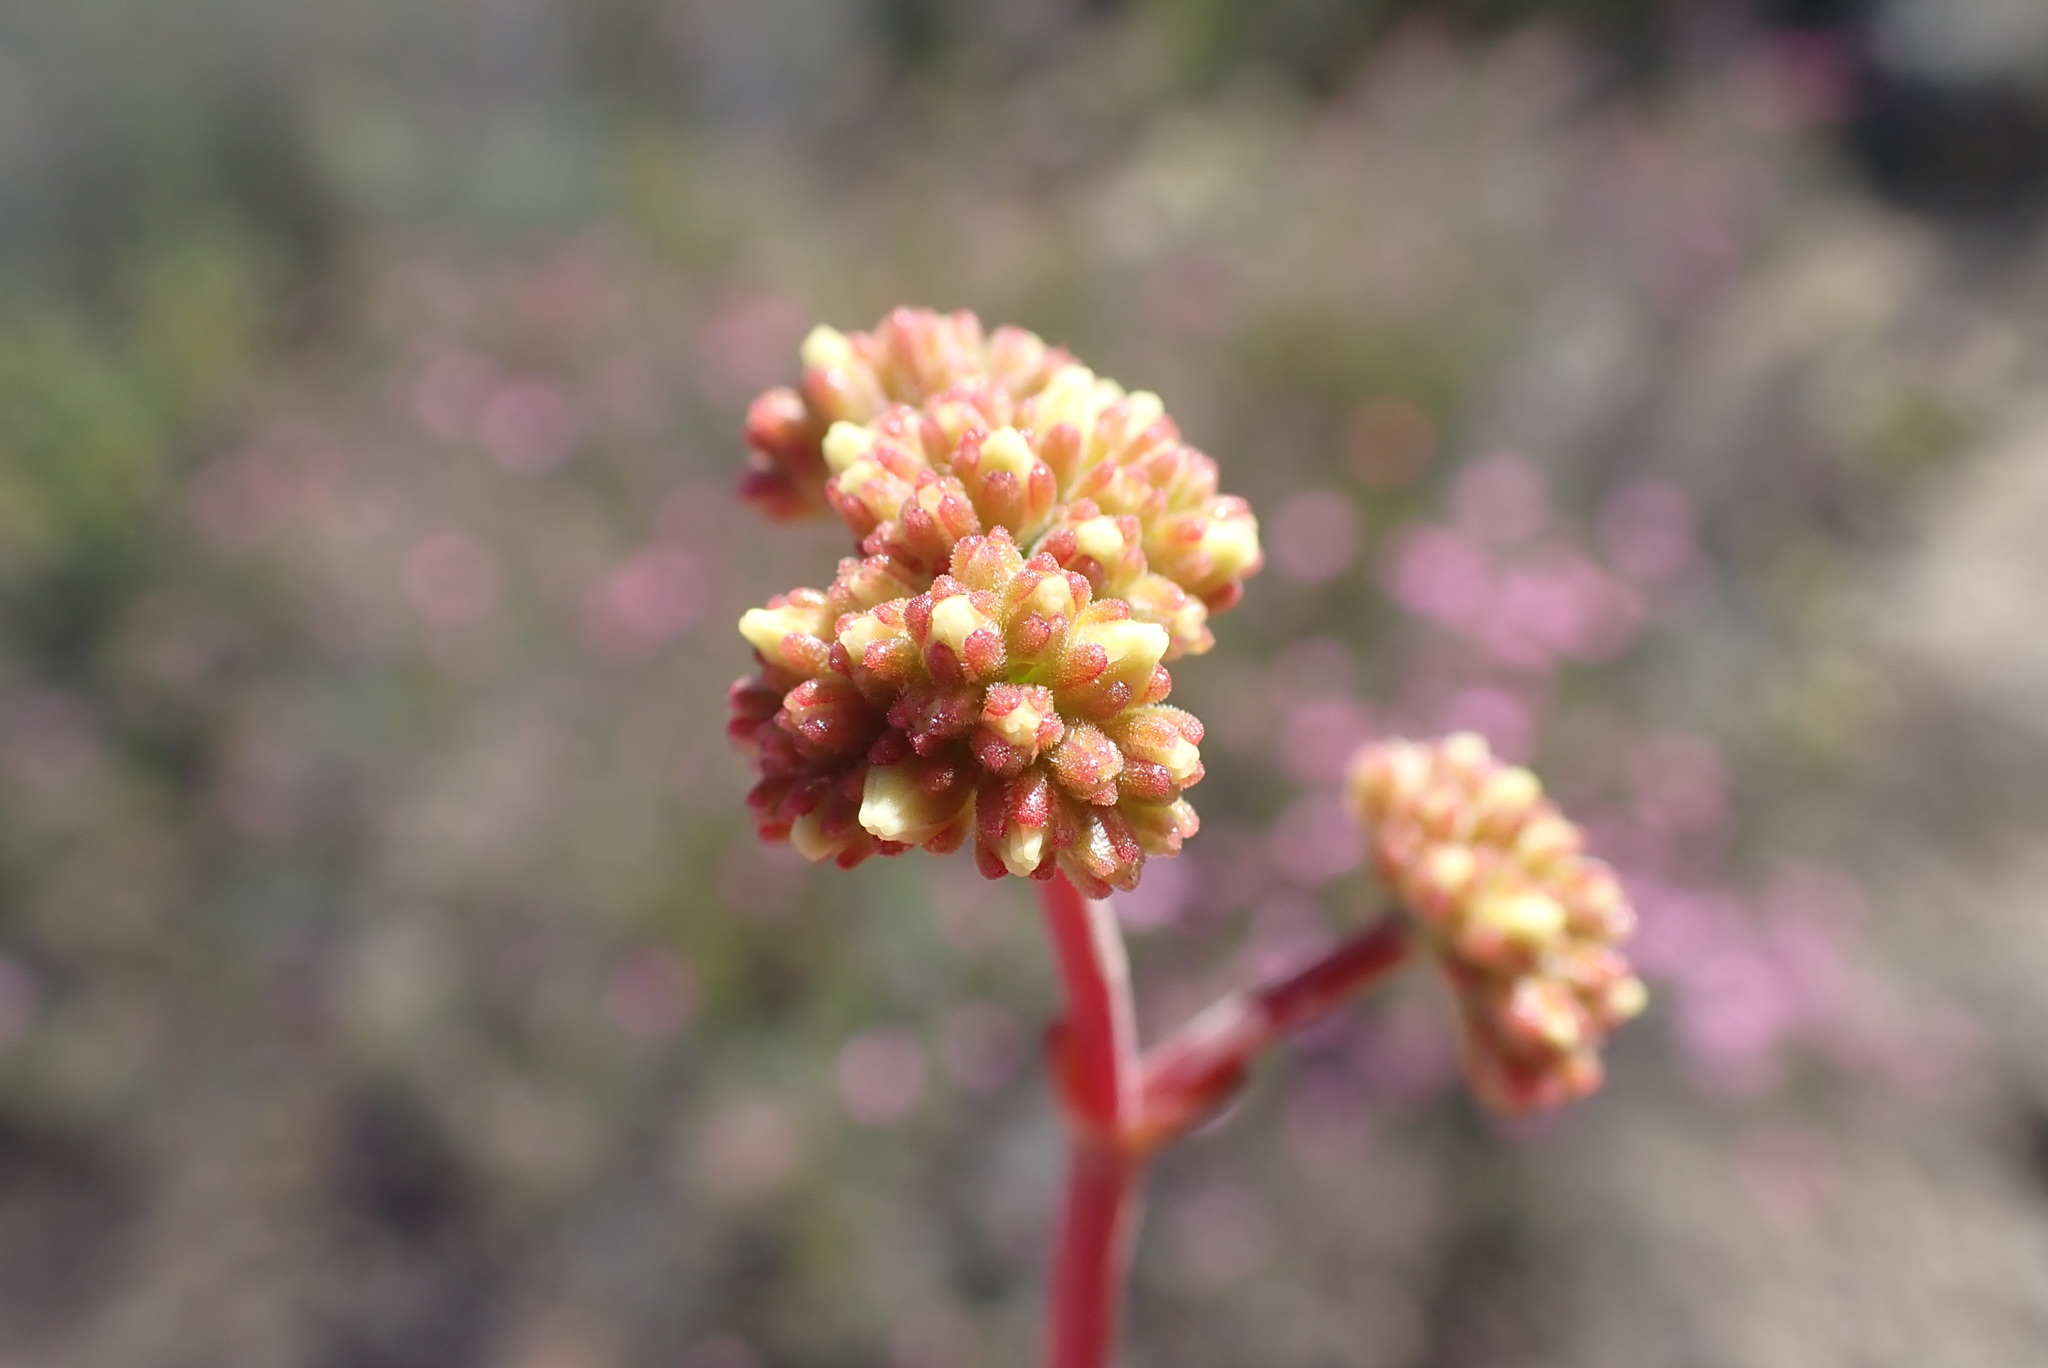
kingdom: Plantae
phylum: Tracheophyta
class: Magnoliopsida
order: Saxifragales
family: Crassulaceae
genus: Crassula
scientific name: Crassula atropurpurea
